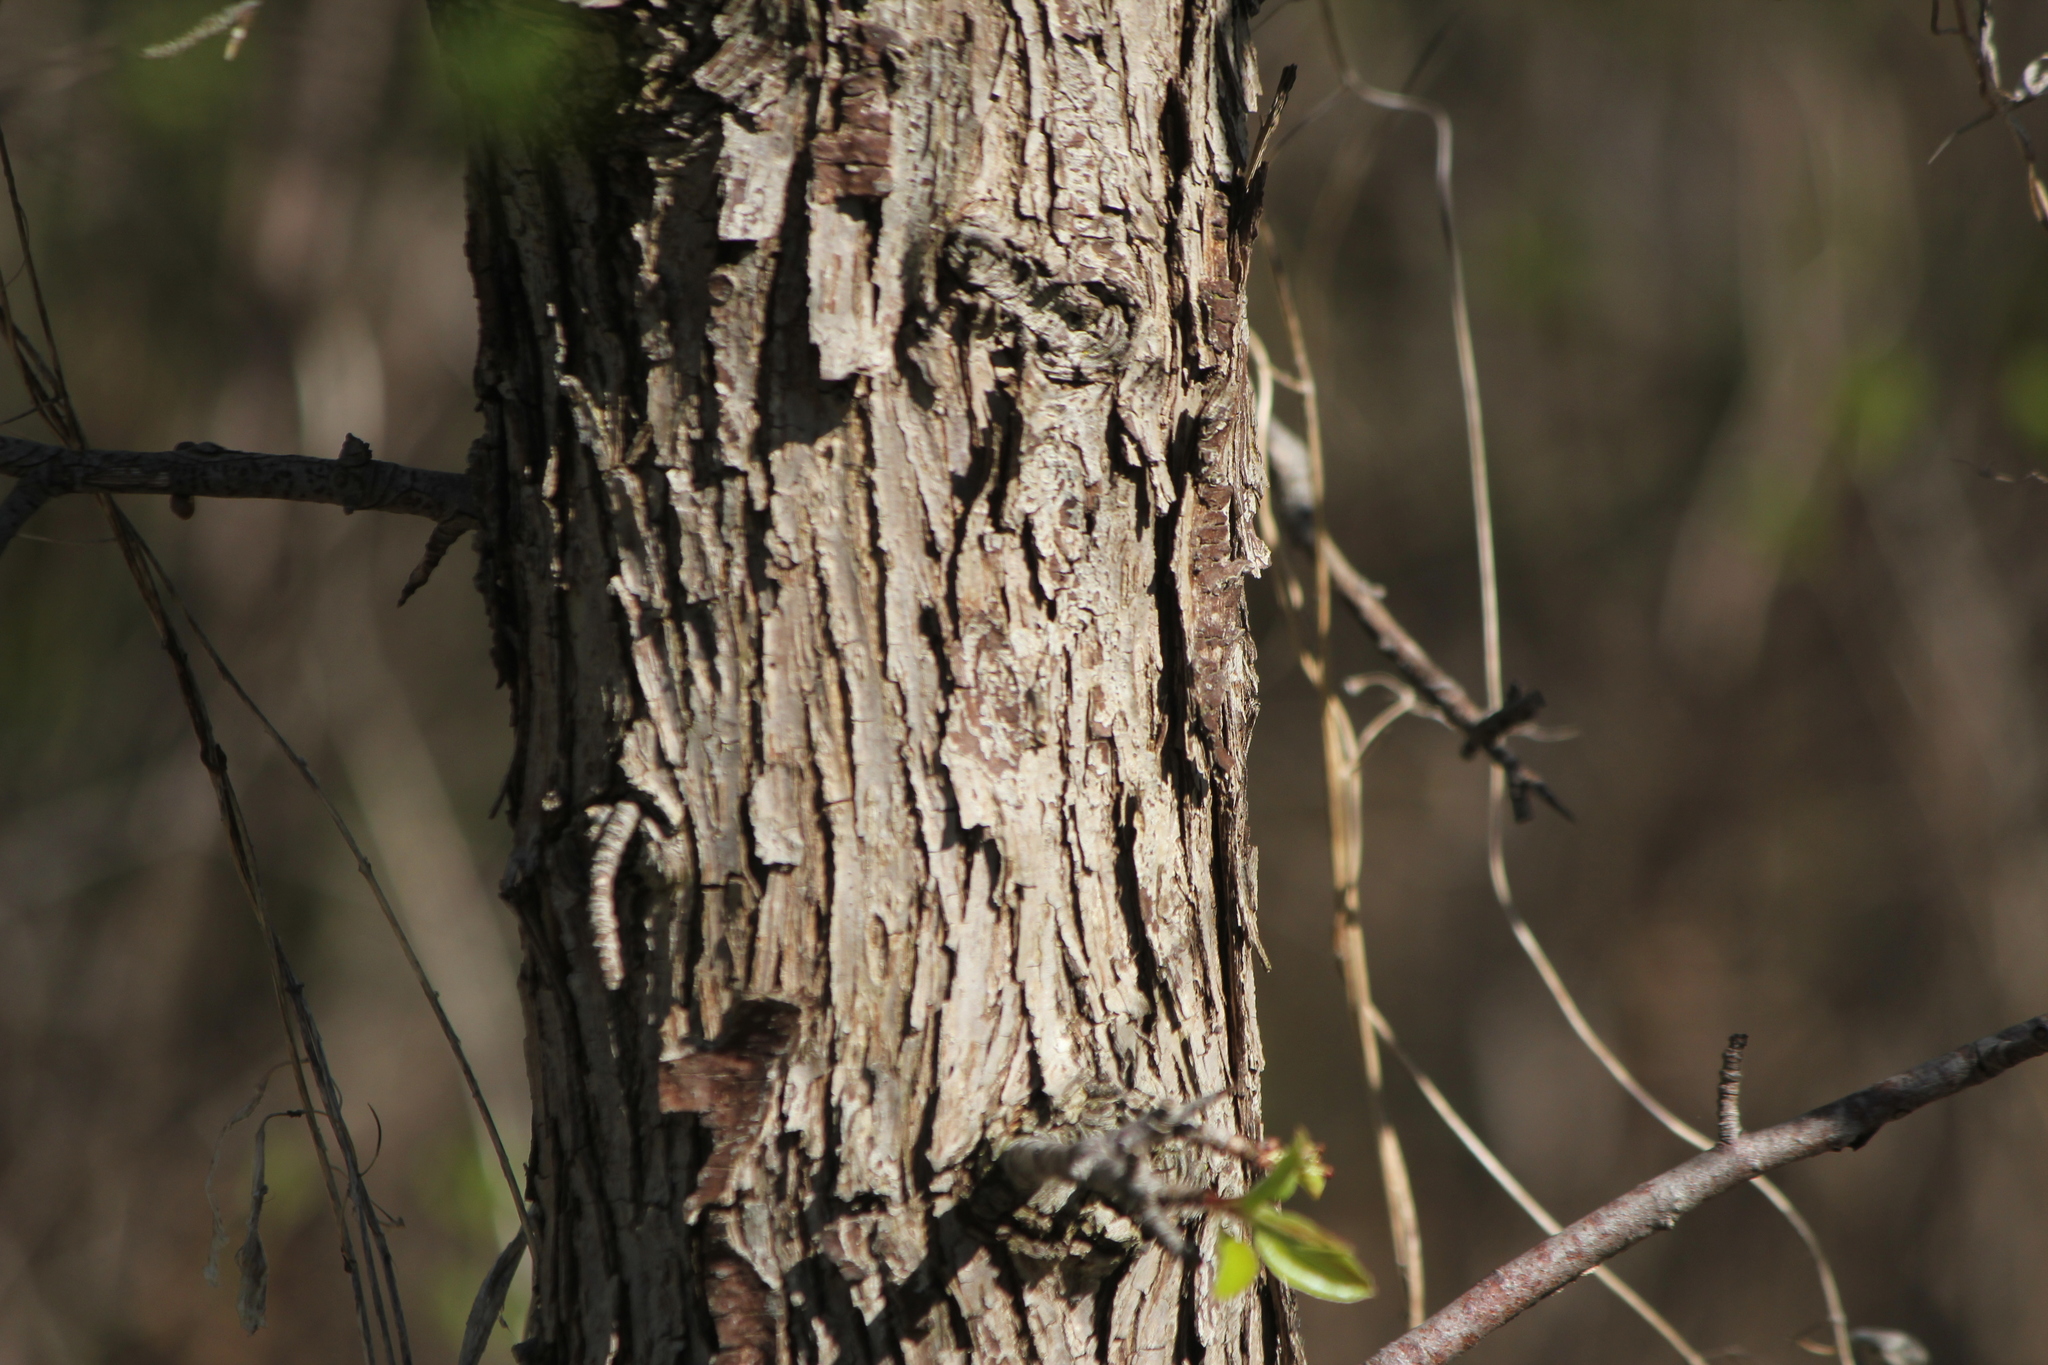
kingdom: Plantae
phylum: Tracheophyta
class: Magnoliopsida
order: Rosales
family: Rosaceae
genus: Pyrus
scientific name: Pyrus communis
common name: Pear
